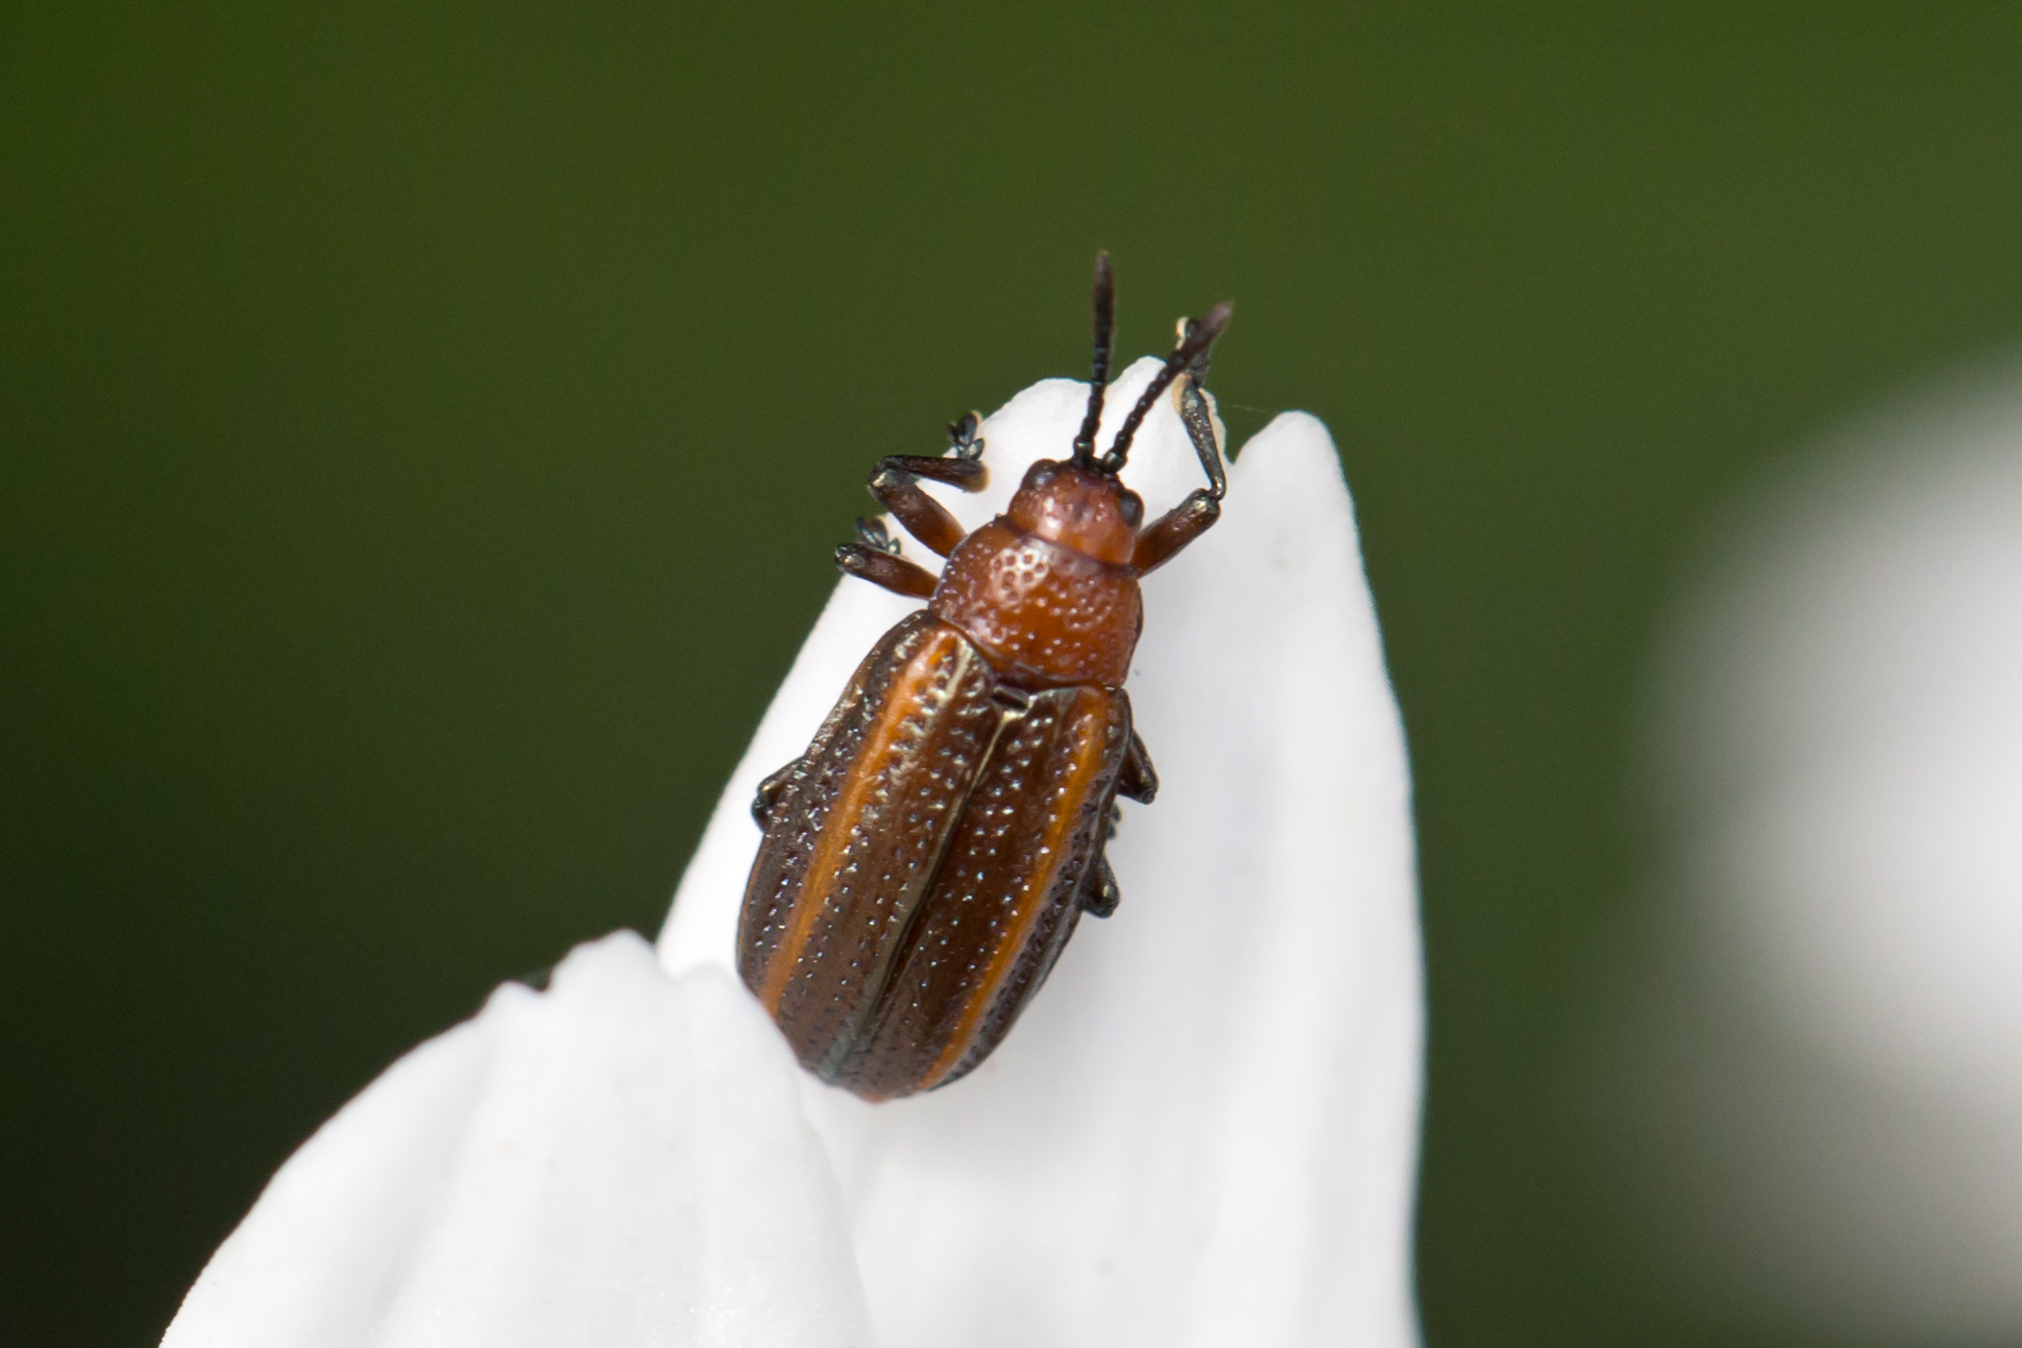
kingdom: Animalia
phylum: Arthropoda
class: Insecta
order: Coleoptera
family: Chrysomelidae
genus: Microrhopala
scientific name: Microrhopala vittata
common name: Goldenrod leaf miner beetle
